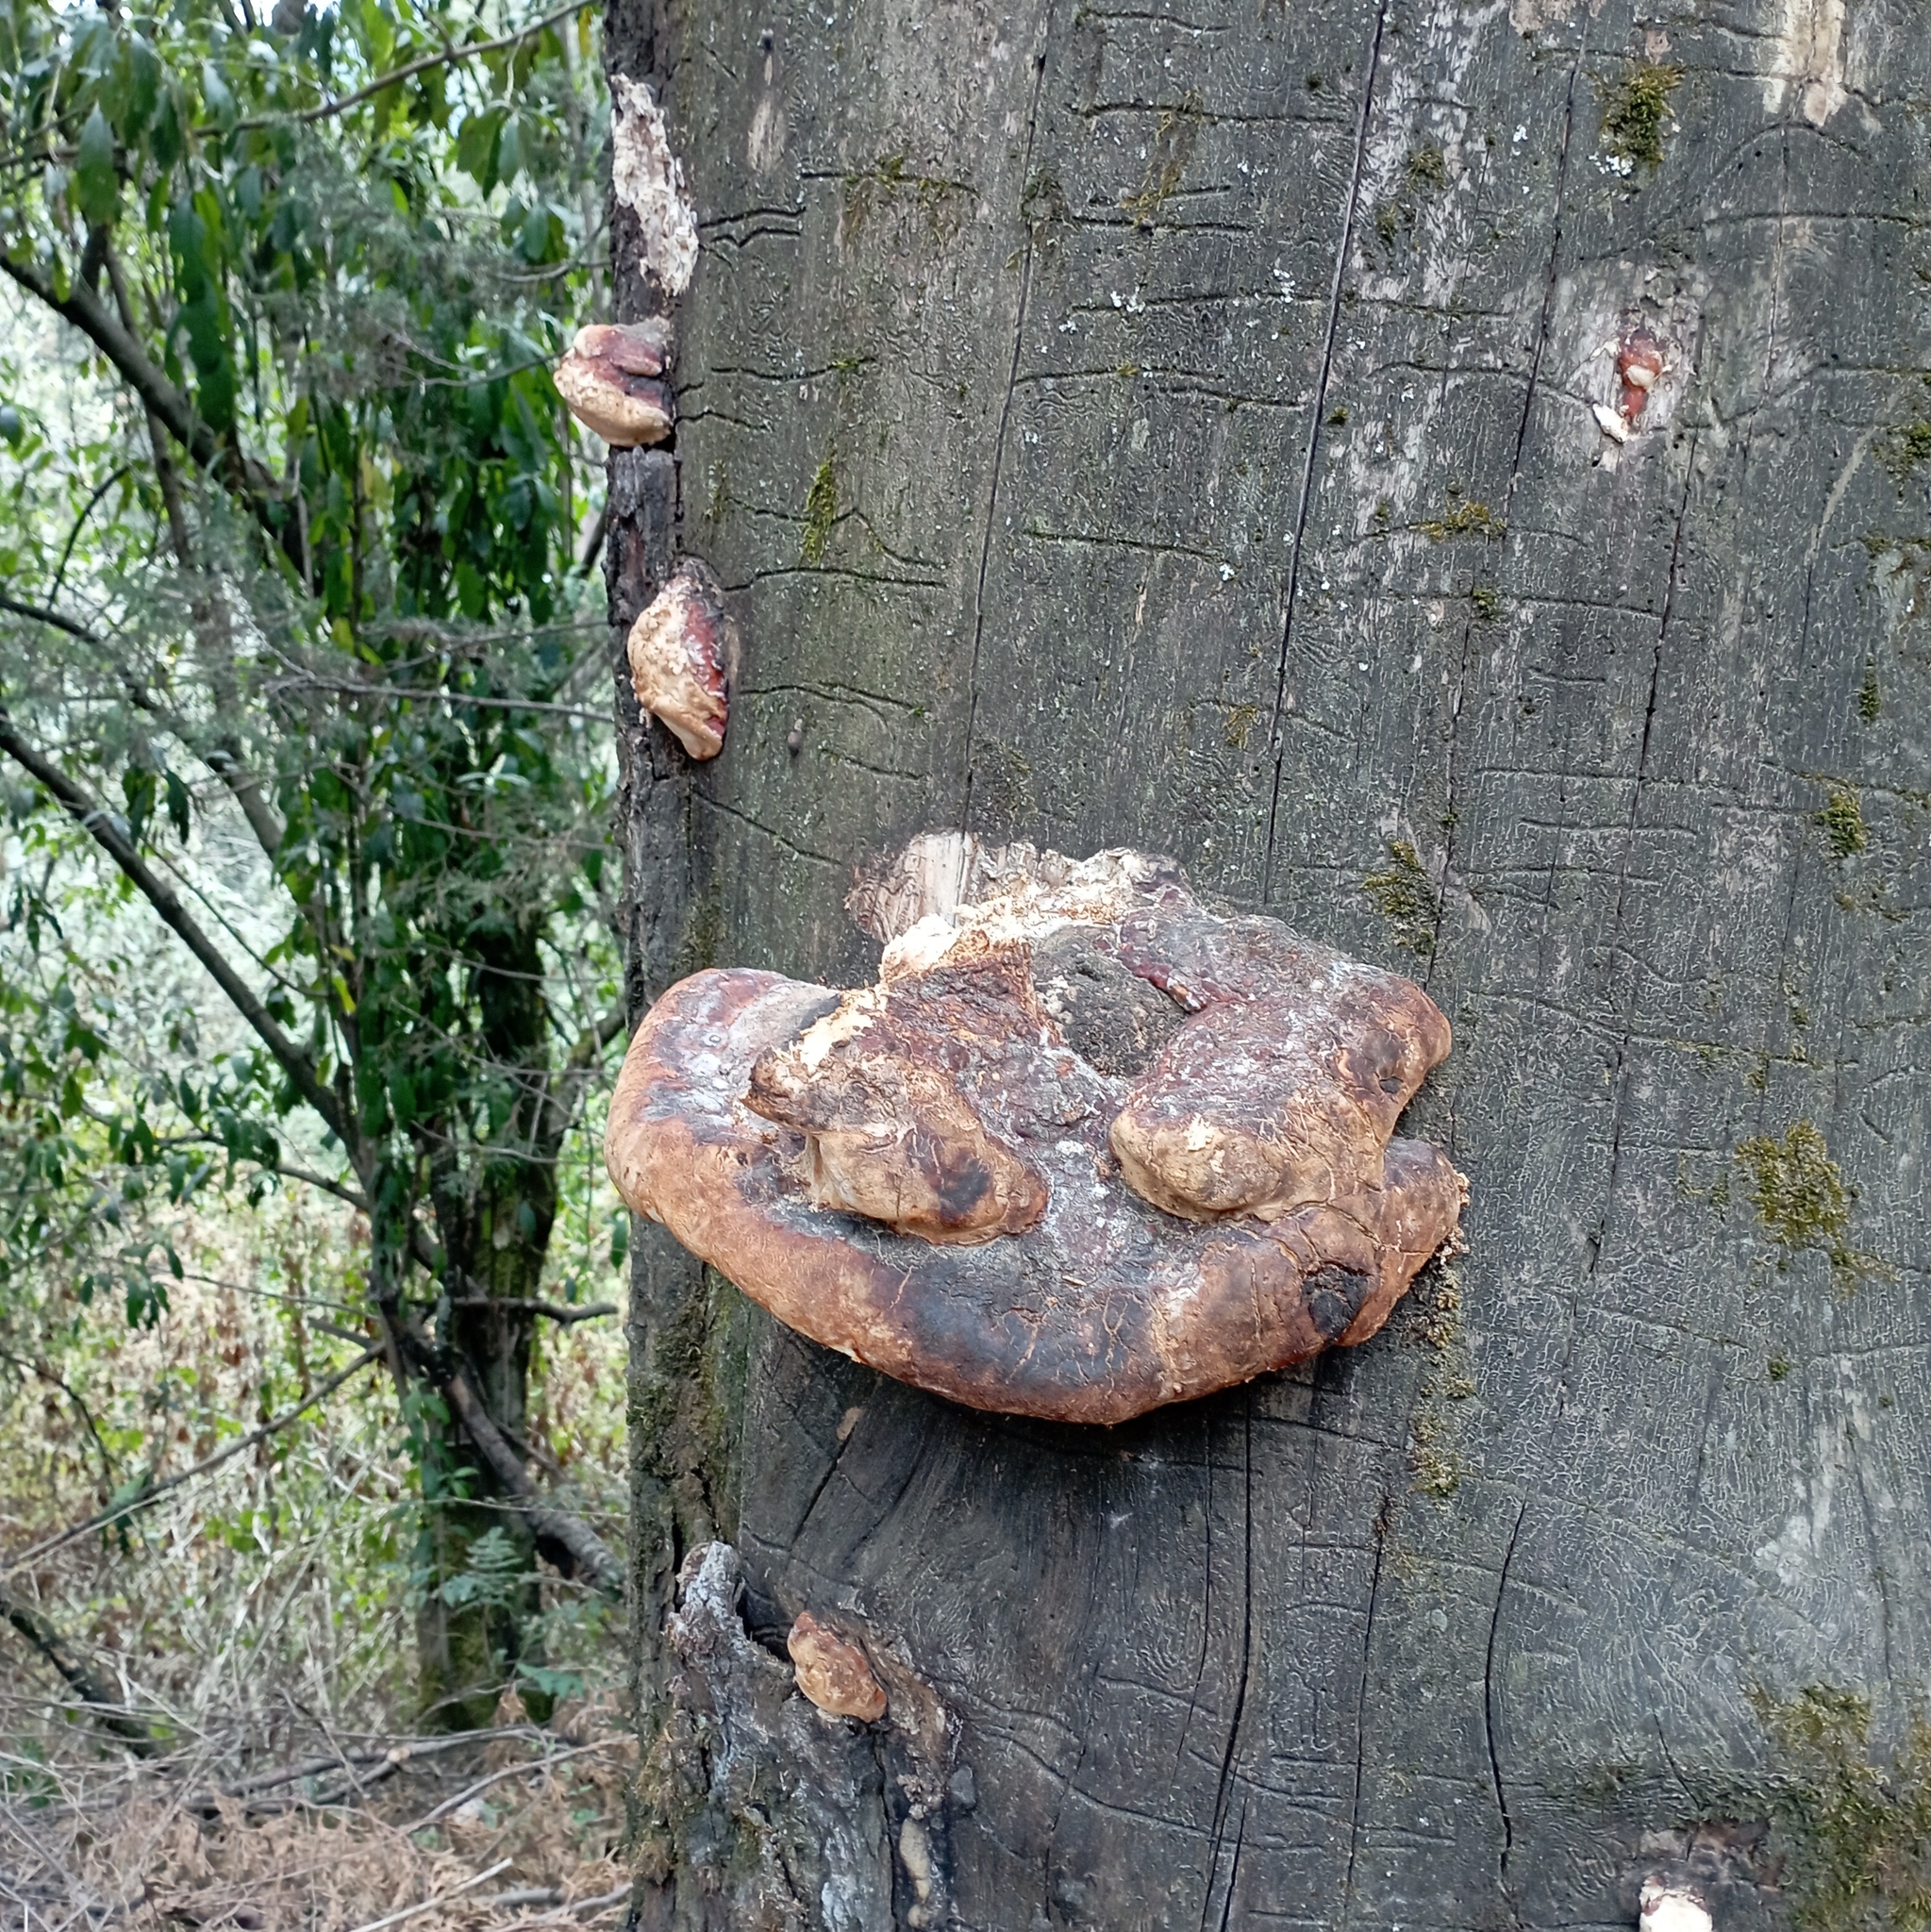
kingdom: Fungi
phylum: Basidiomycota
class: Agaricomycetes
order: Polyporales
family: Fomitopsidaceae
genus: Fomitopsis
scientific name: Fomitopsis schrenkii
